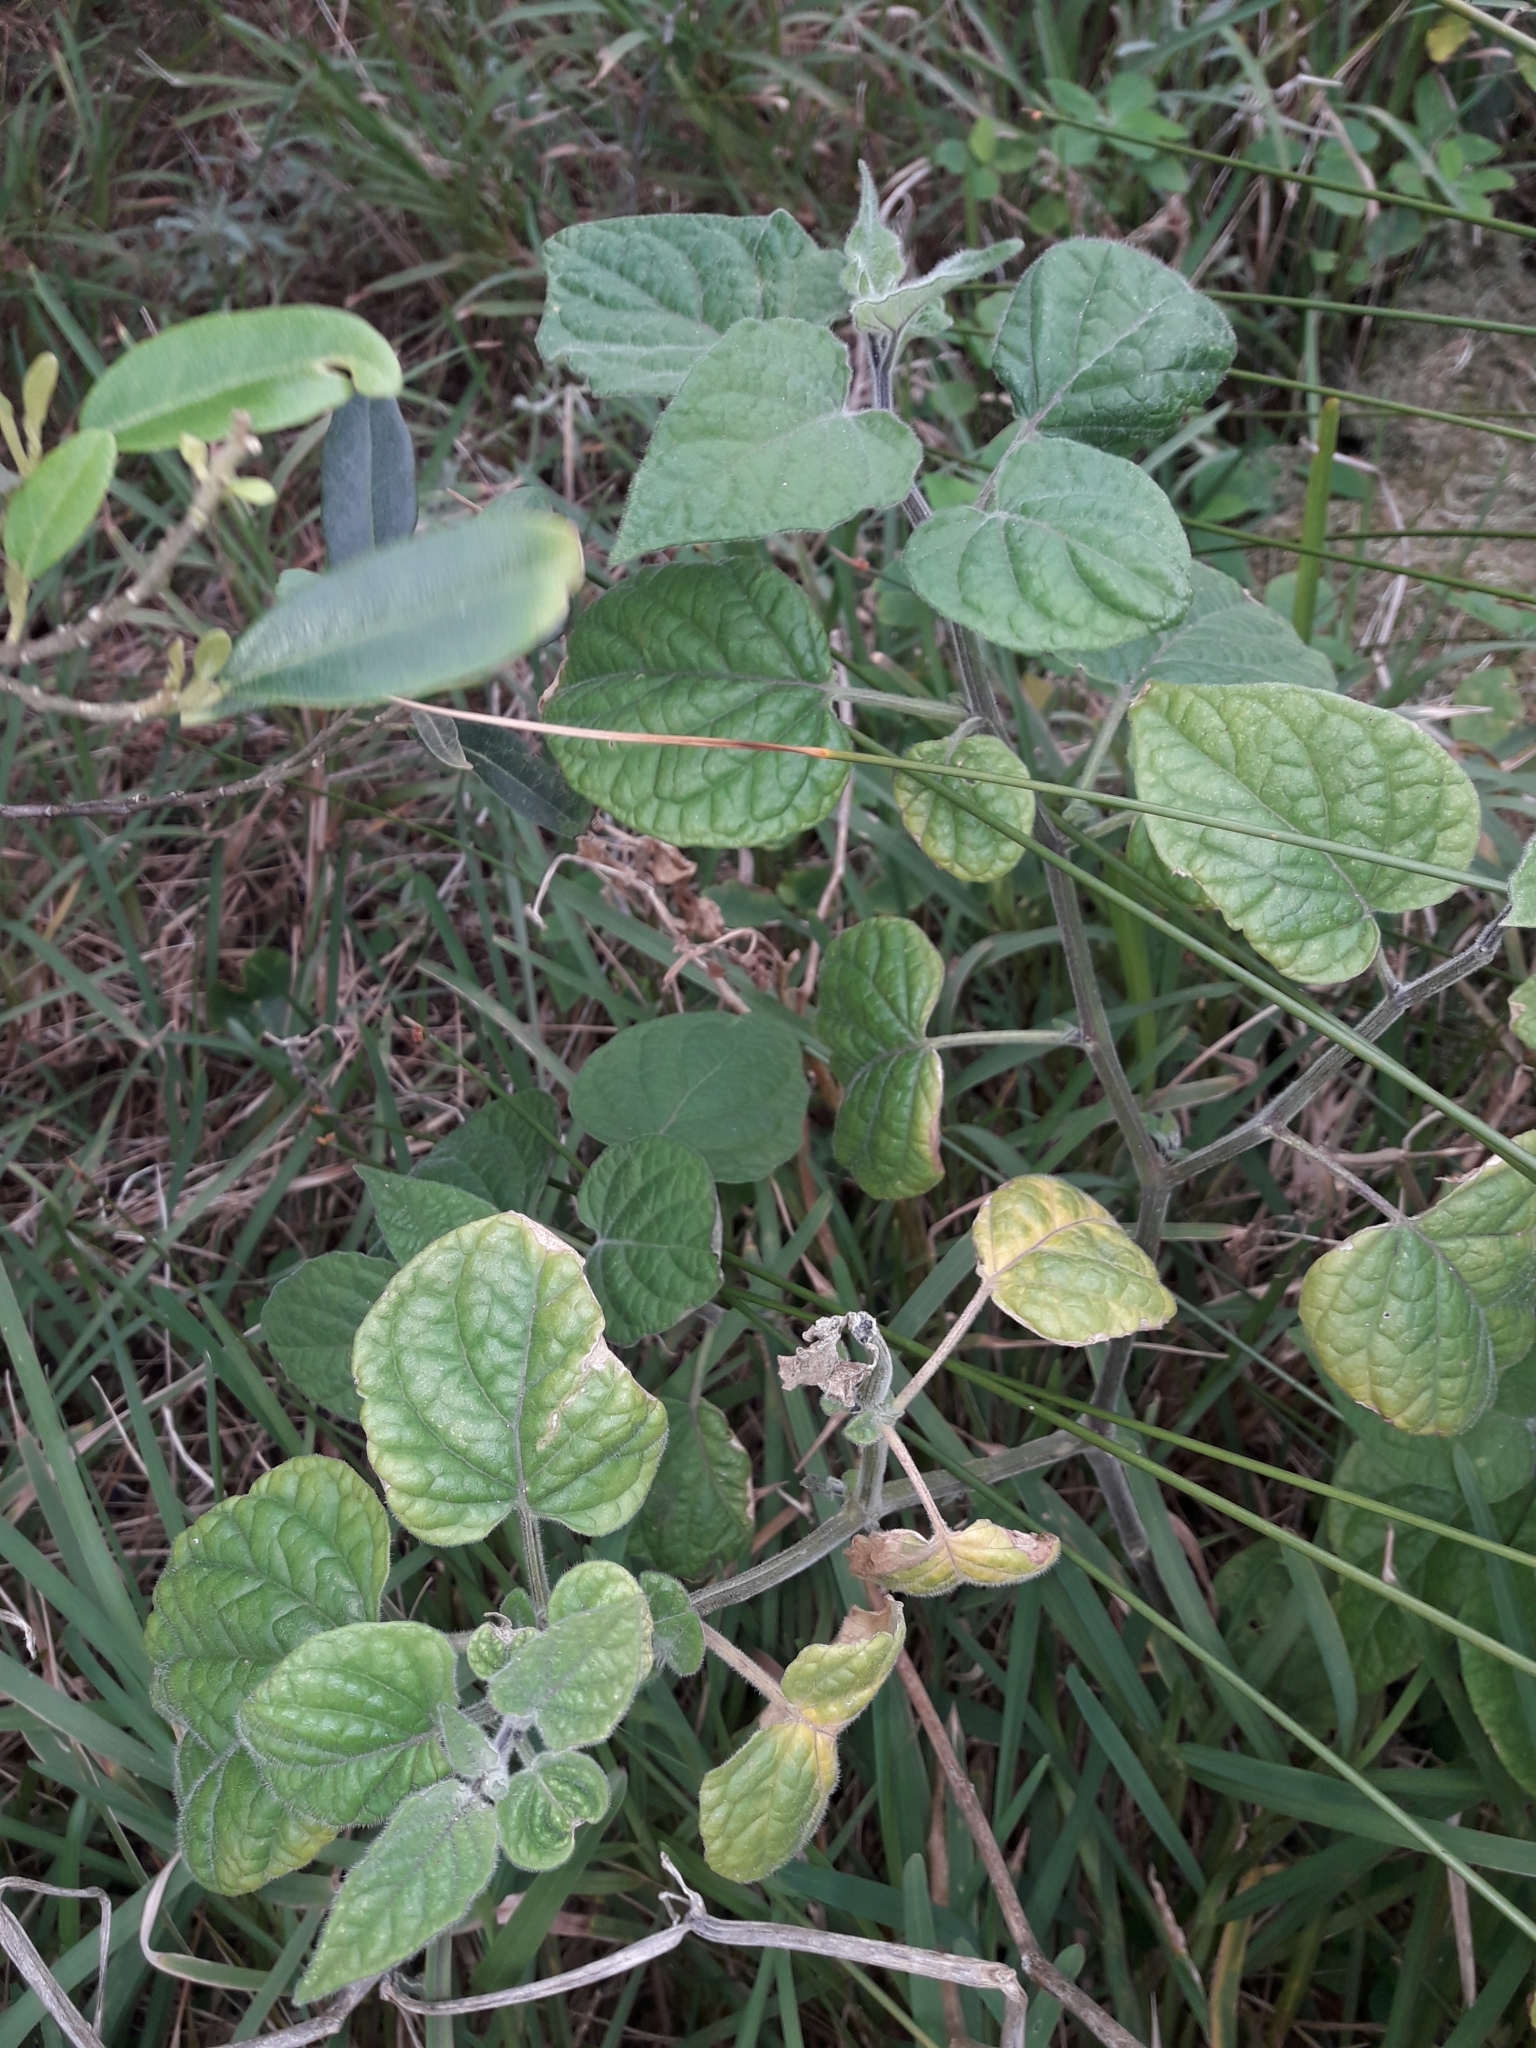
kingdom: Plantae
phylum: Tracheophyta
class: Magnoliopsida
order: Solanales
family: Solanaceae
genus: Physalis
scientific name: Physalis peruviana
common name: Cape-gooseberry
